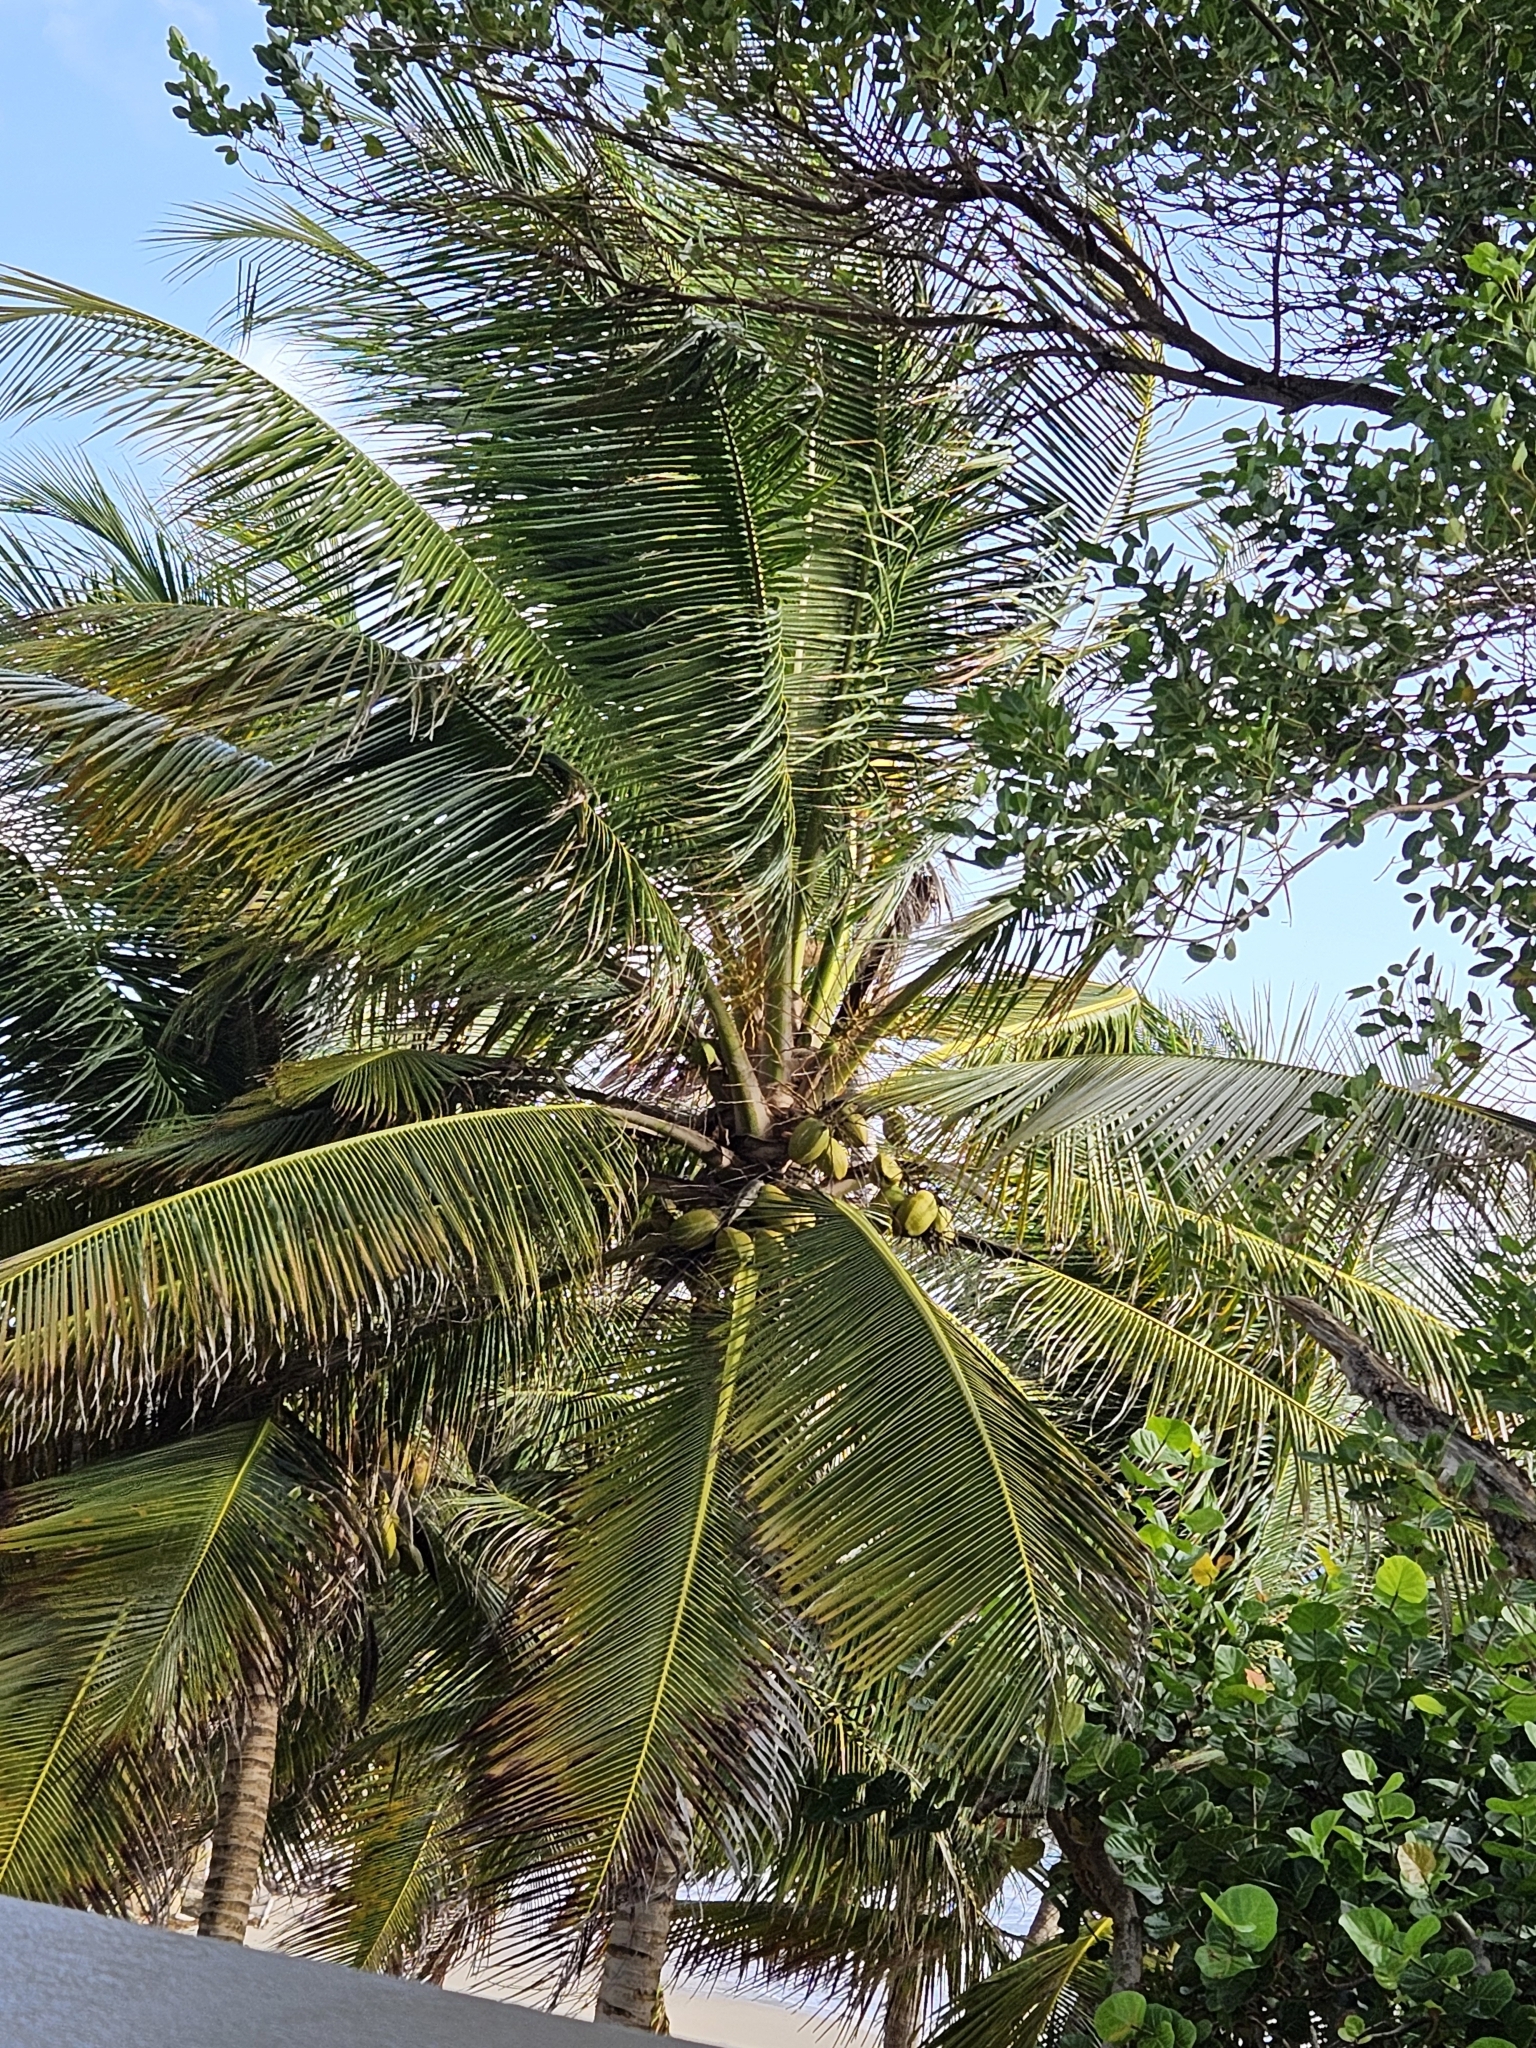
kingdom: Plantae
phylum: Tracheophyta
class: Liliopsida
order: Arecales
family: Arecaceae
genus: Cocos
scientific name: Cocos nucifera
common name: Coconut palm
